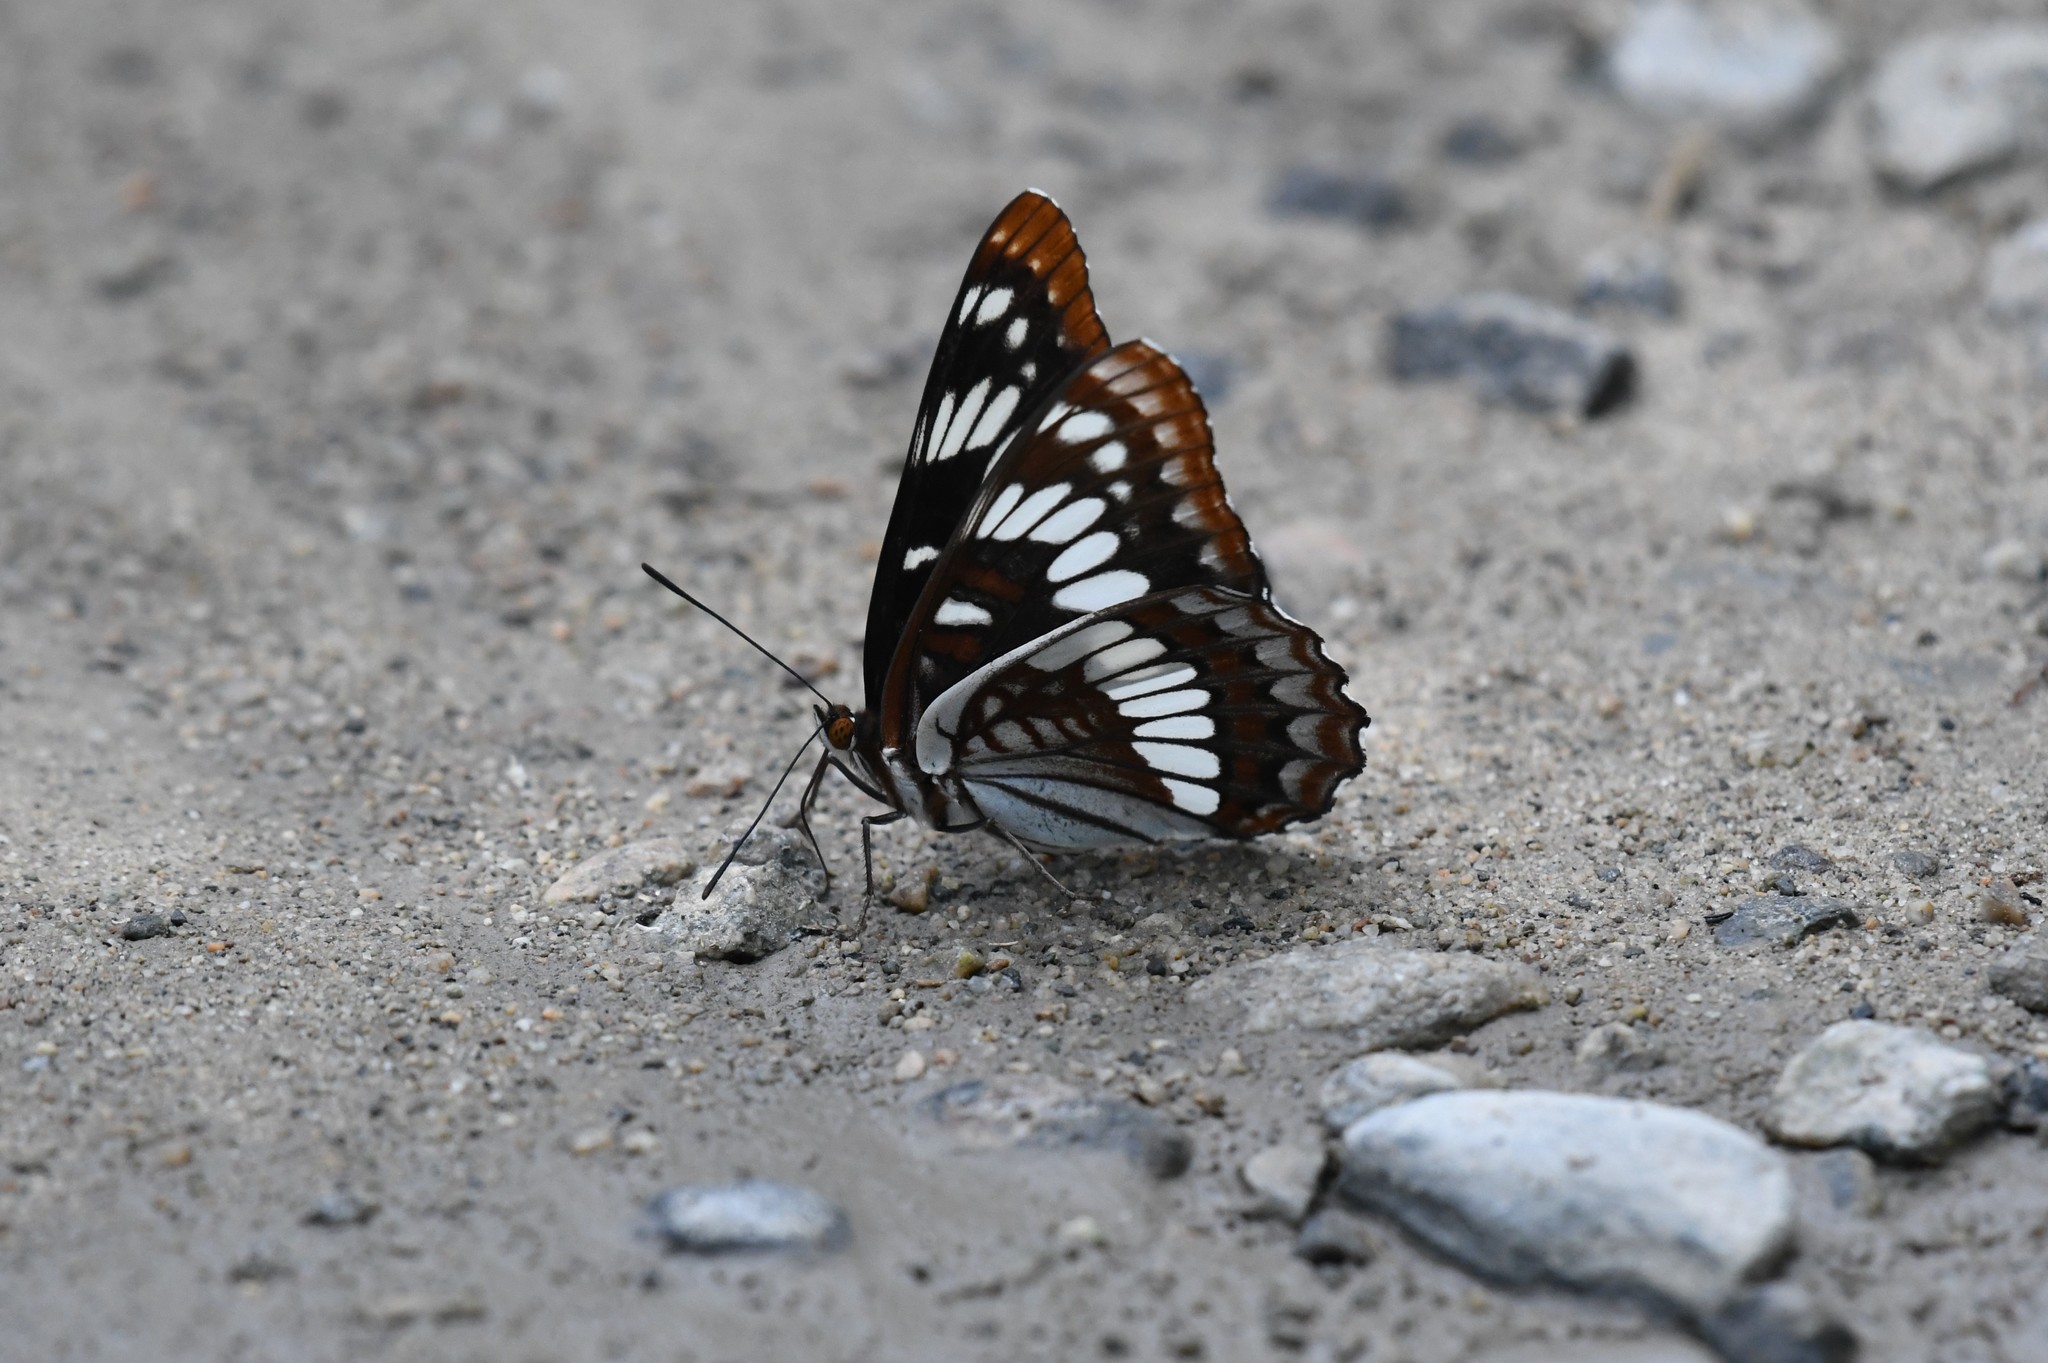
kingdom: Animalia
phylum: Arthropoda
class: Insecta
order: Lepidoptera
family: Nymphalidae
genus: Limenitis
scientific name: Limenitis lorquini
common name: Lorquin's admiral
